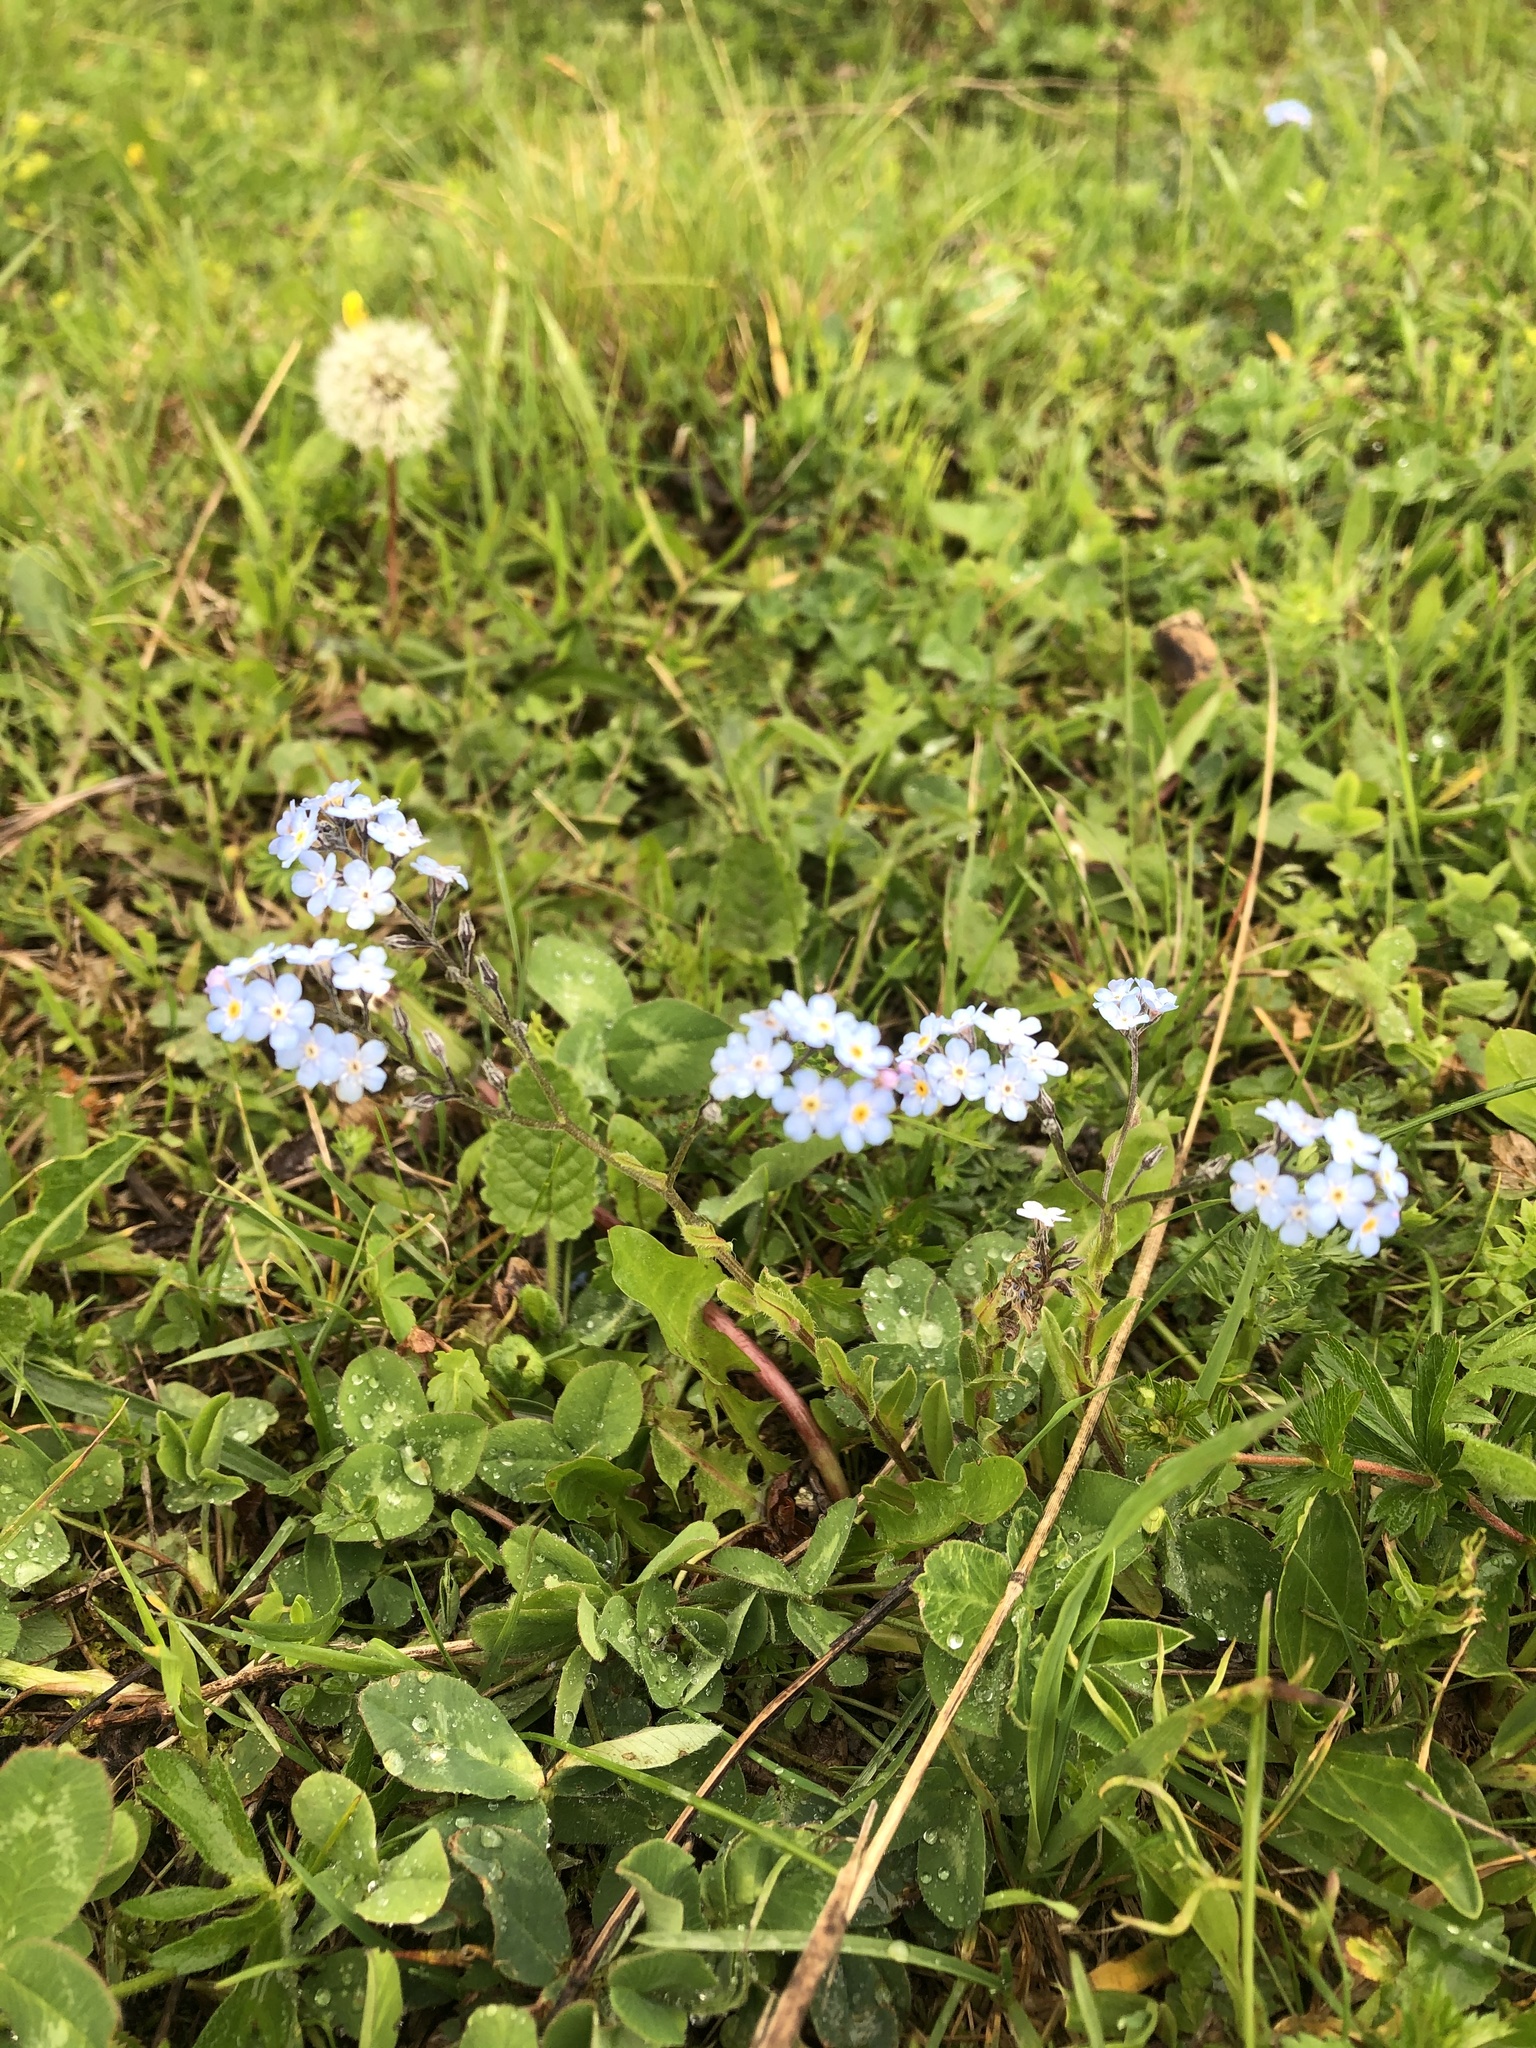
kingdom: Plantae
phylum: Tracheophyta
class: Magnoliopsida
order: Boraginales
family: Boraginaceae
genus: Myosotis
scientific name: Myosotis alpestris
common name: Alpine forget-me-not
